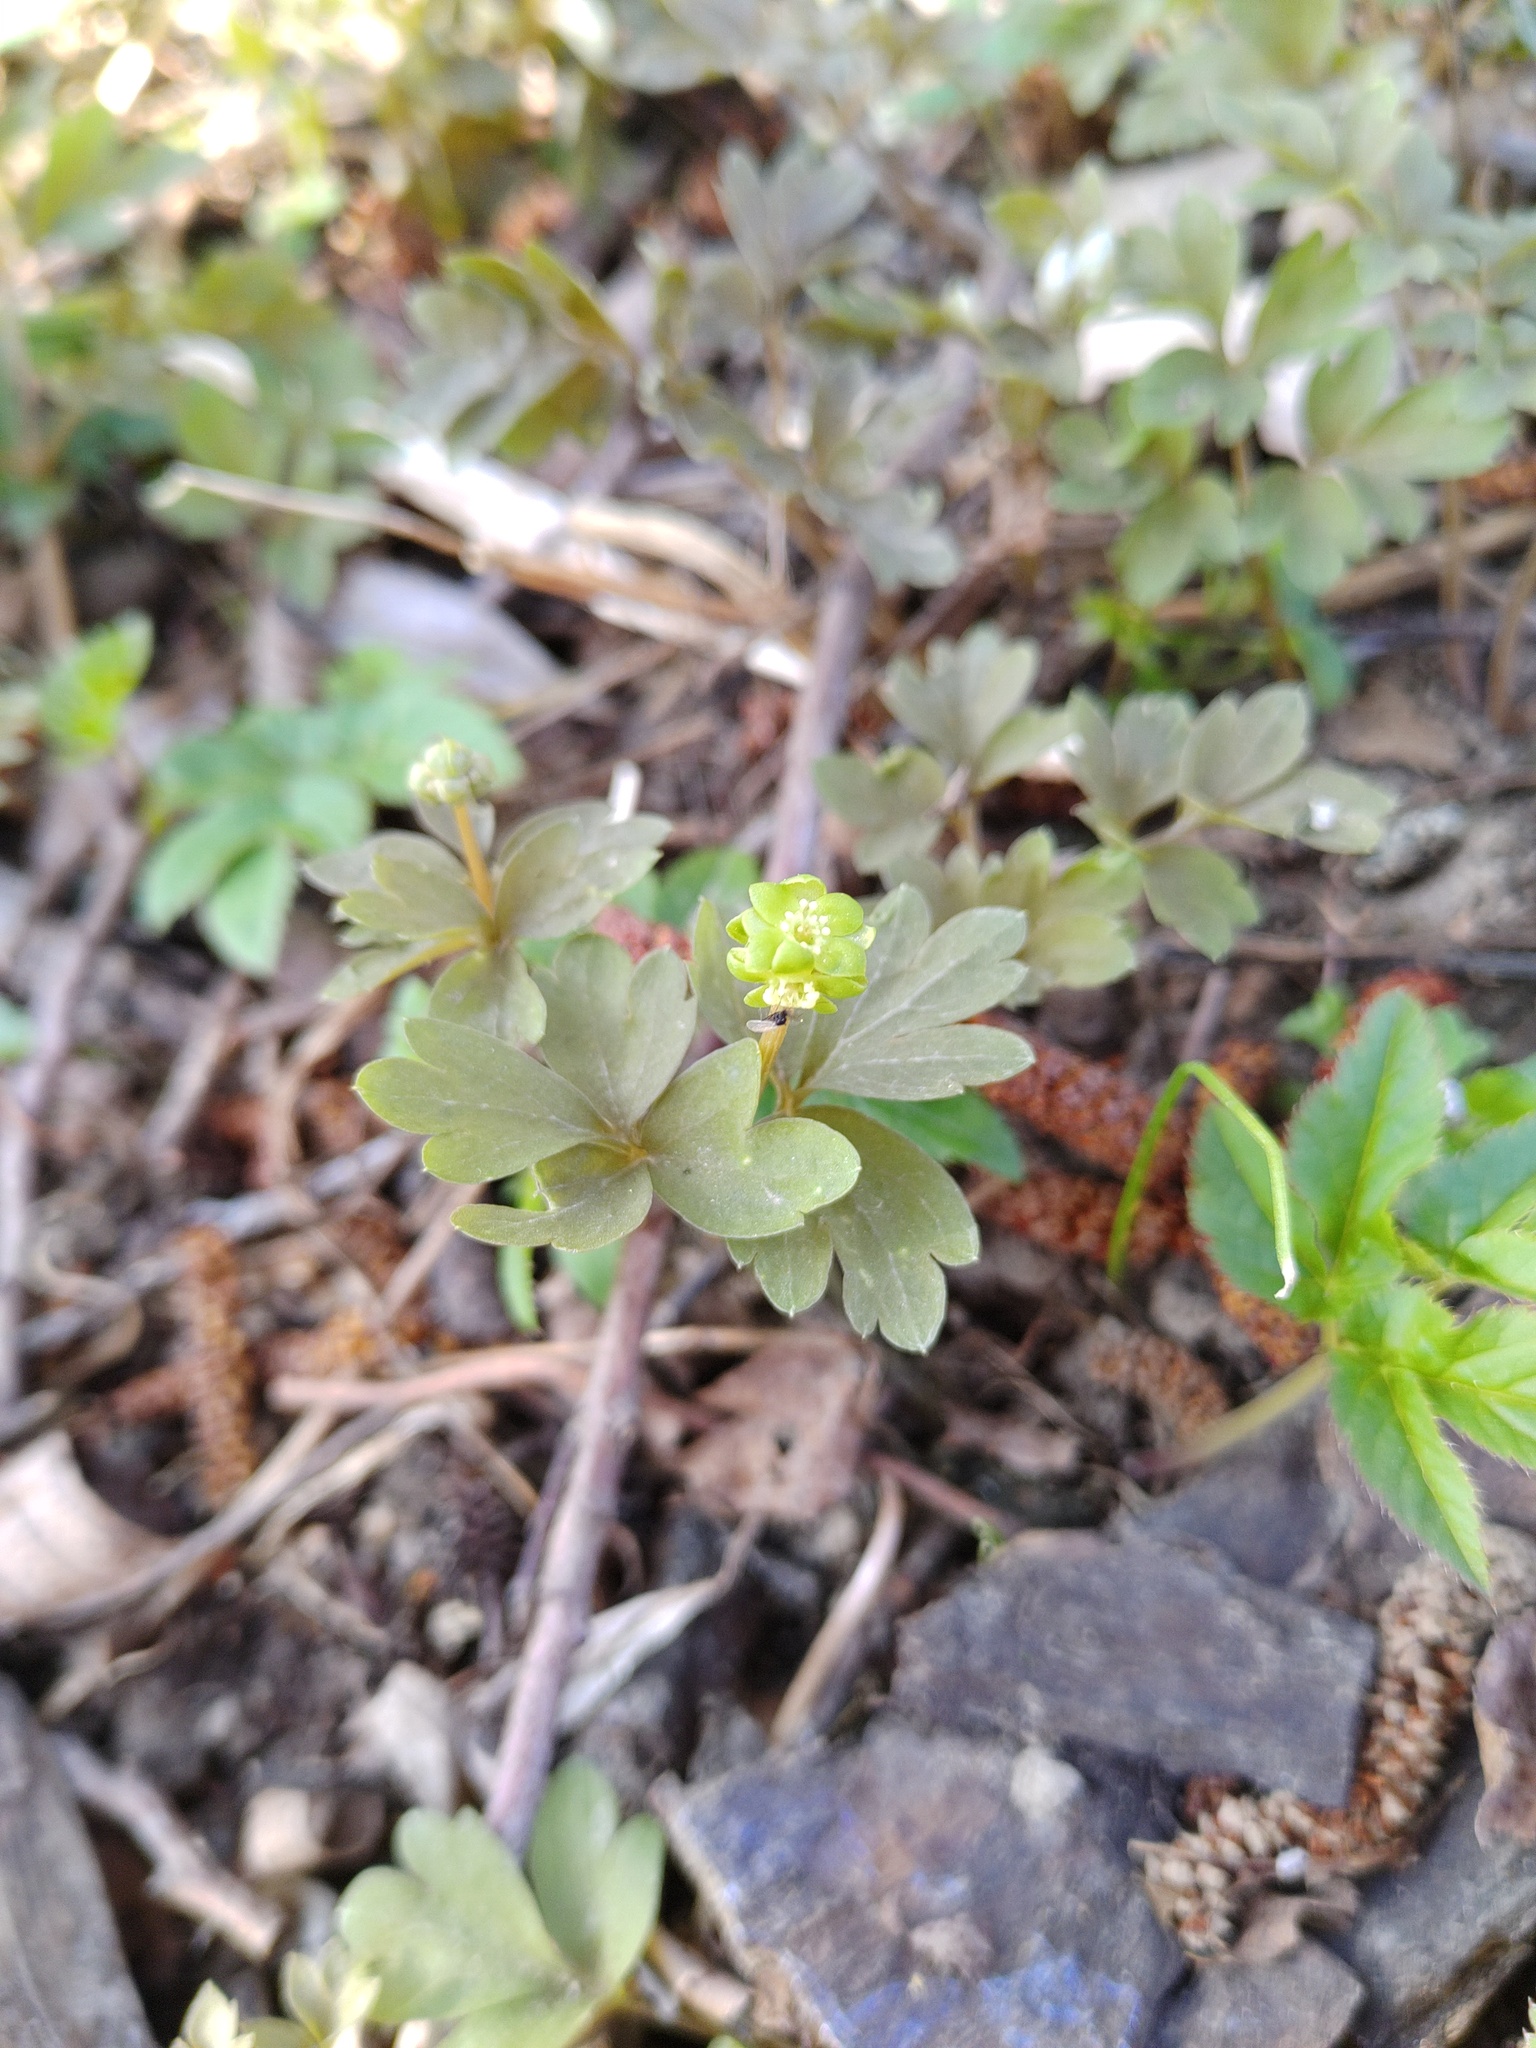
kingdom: Plantae
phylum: Tracheophyta
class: Magnoliopsida
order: Dipsacales
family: Viburnaceae
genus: Adoxa
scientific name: Adoxa moschatellina
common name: Moschatel
